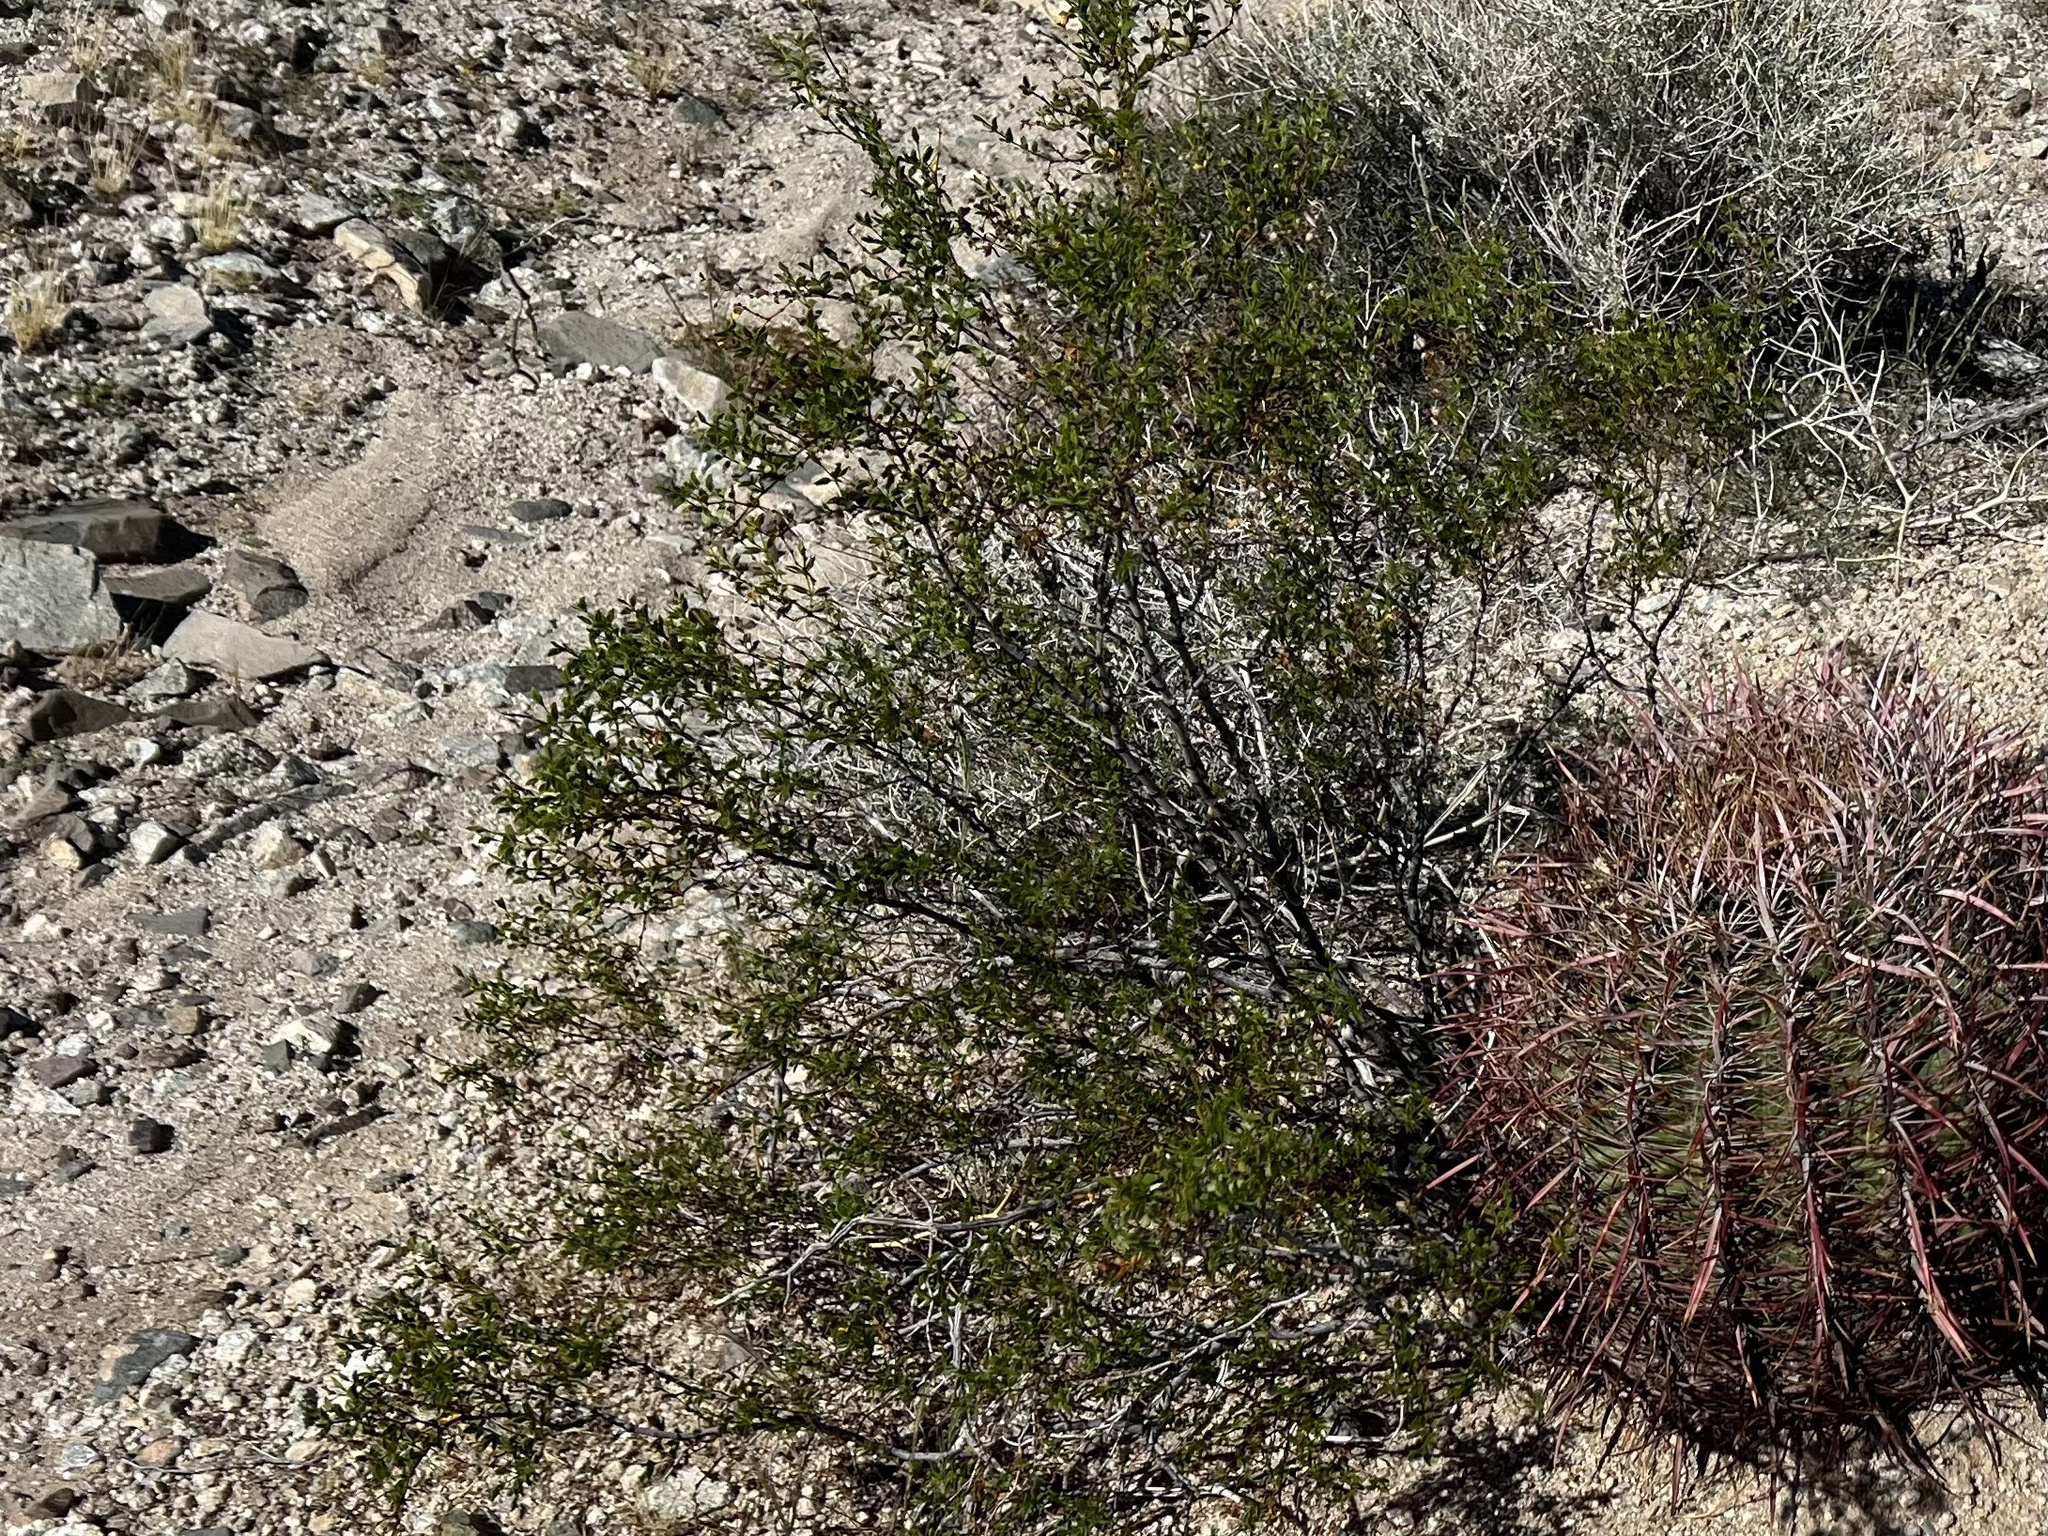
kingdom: Plantae
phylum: Tracheophyta
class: Magnoliopsida
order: Caryophyllales
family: Cactaceae
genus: Ferocactus
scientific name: Ferocactus cylindraceus
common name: California barrel cactus
